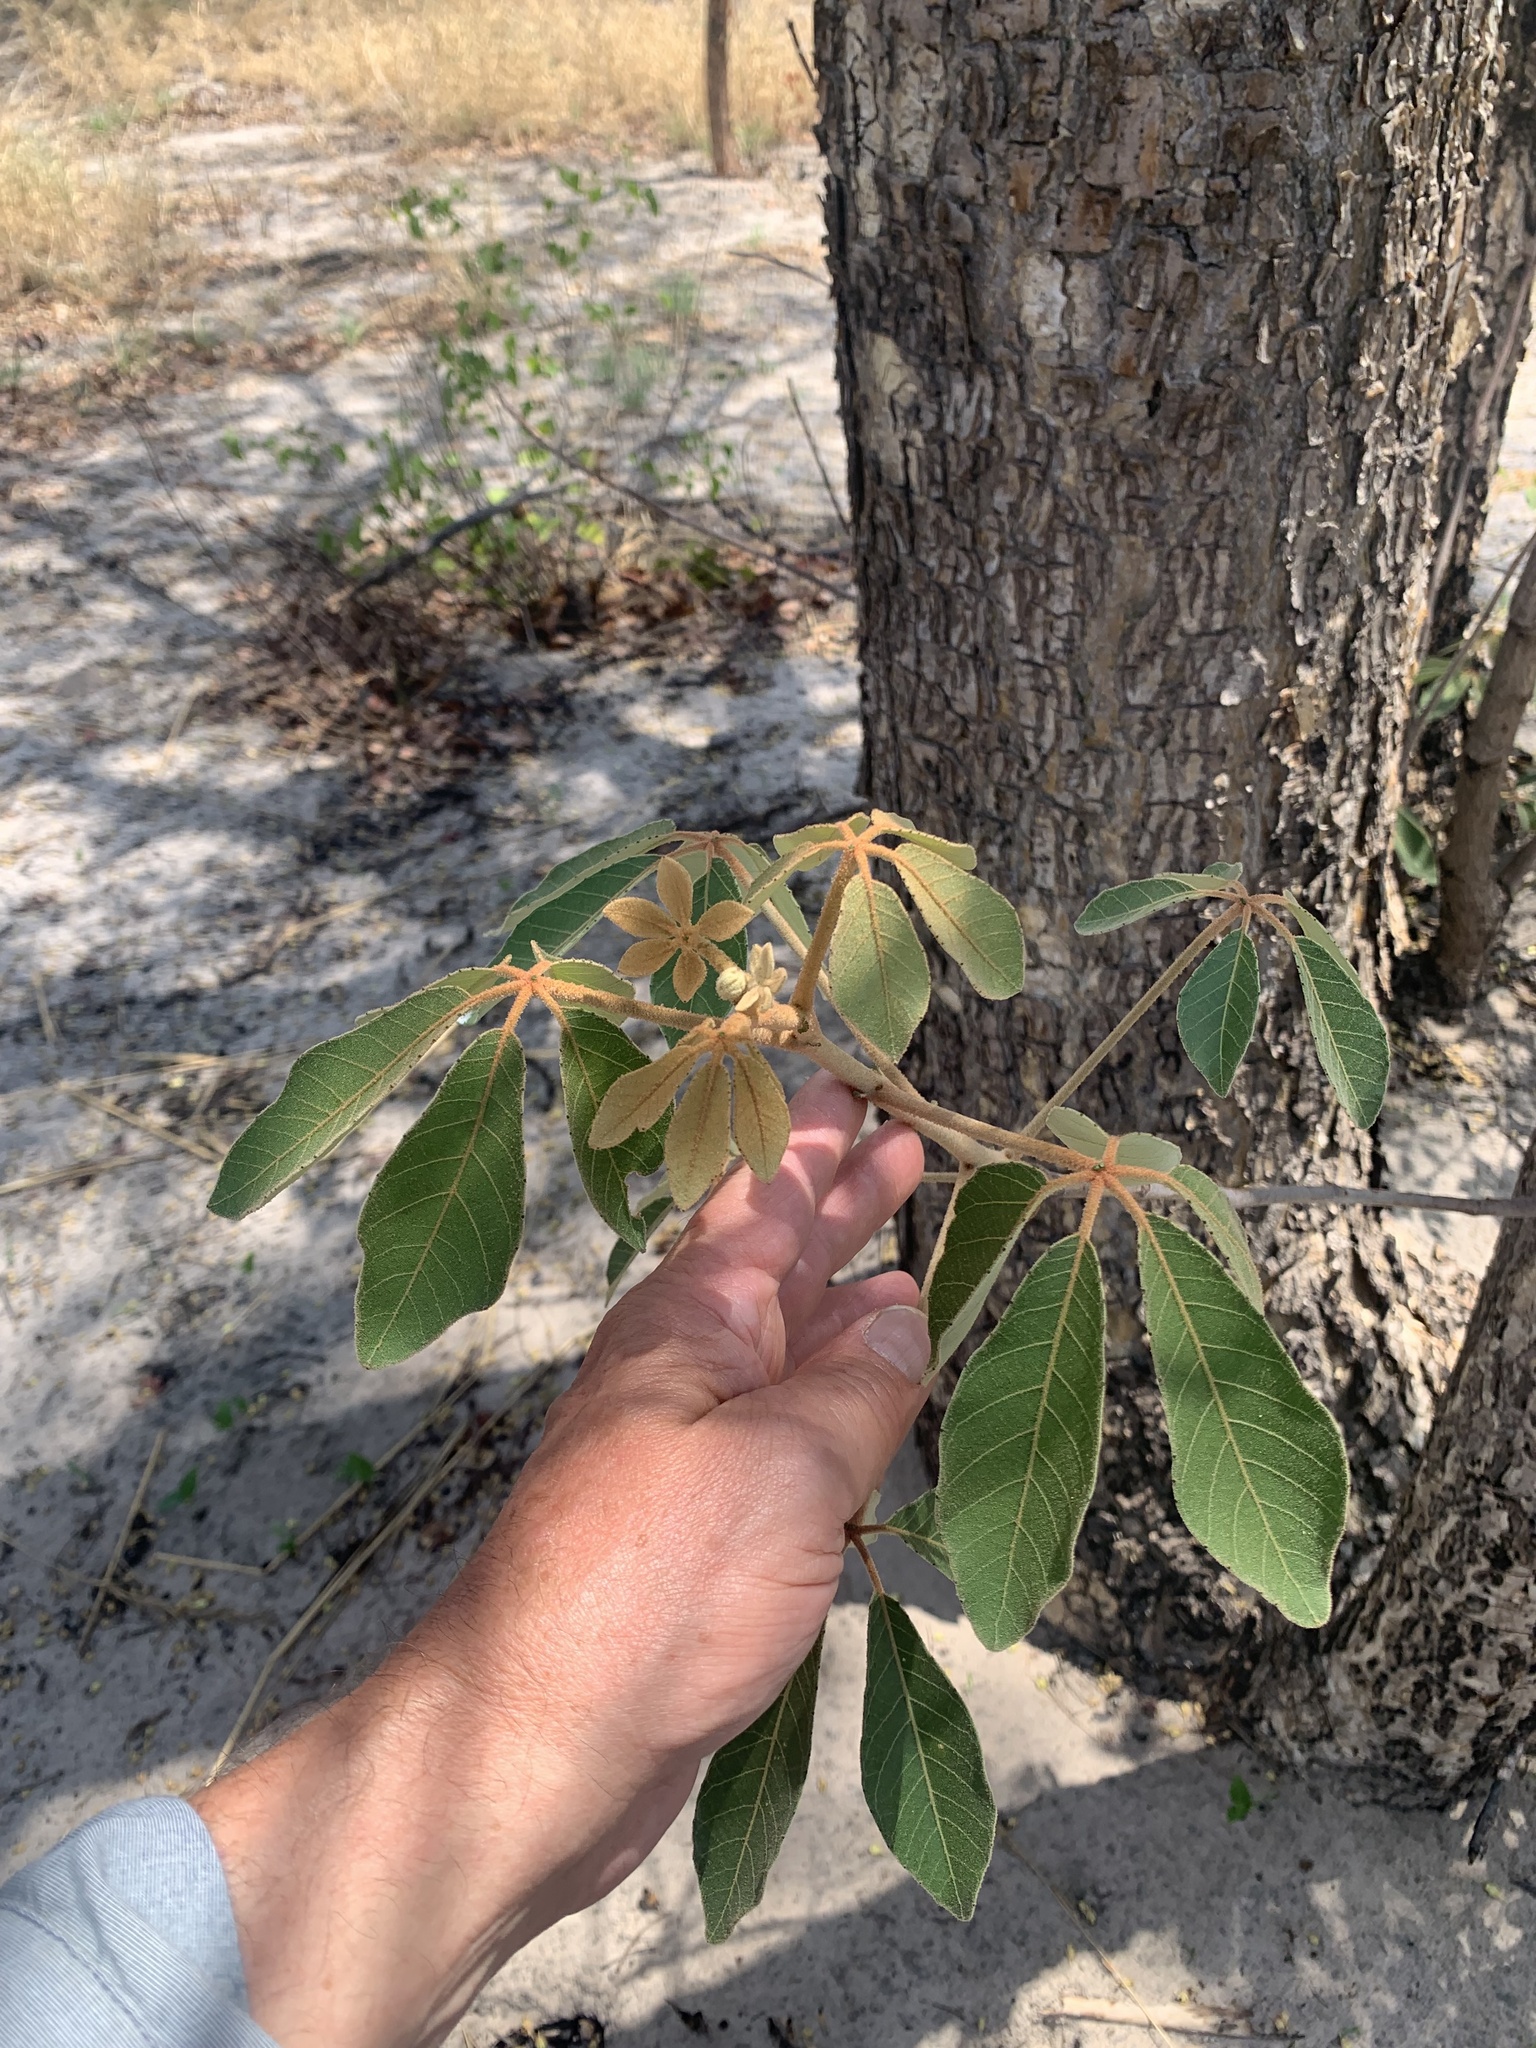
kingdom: Plantae
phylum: Tracheophyta
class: Magnoliopsida
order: Malpighiales
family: Euphorbiaceae
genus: Schinziophyton
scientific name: Schinziophyton rautanenii
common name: Manketti
